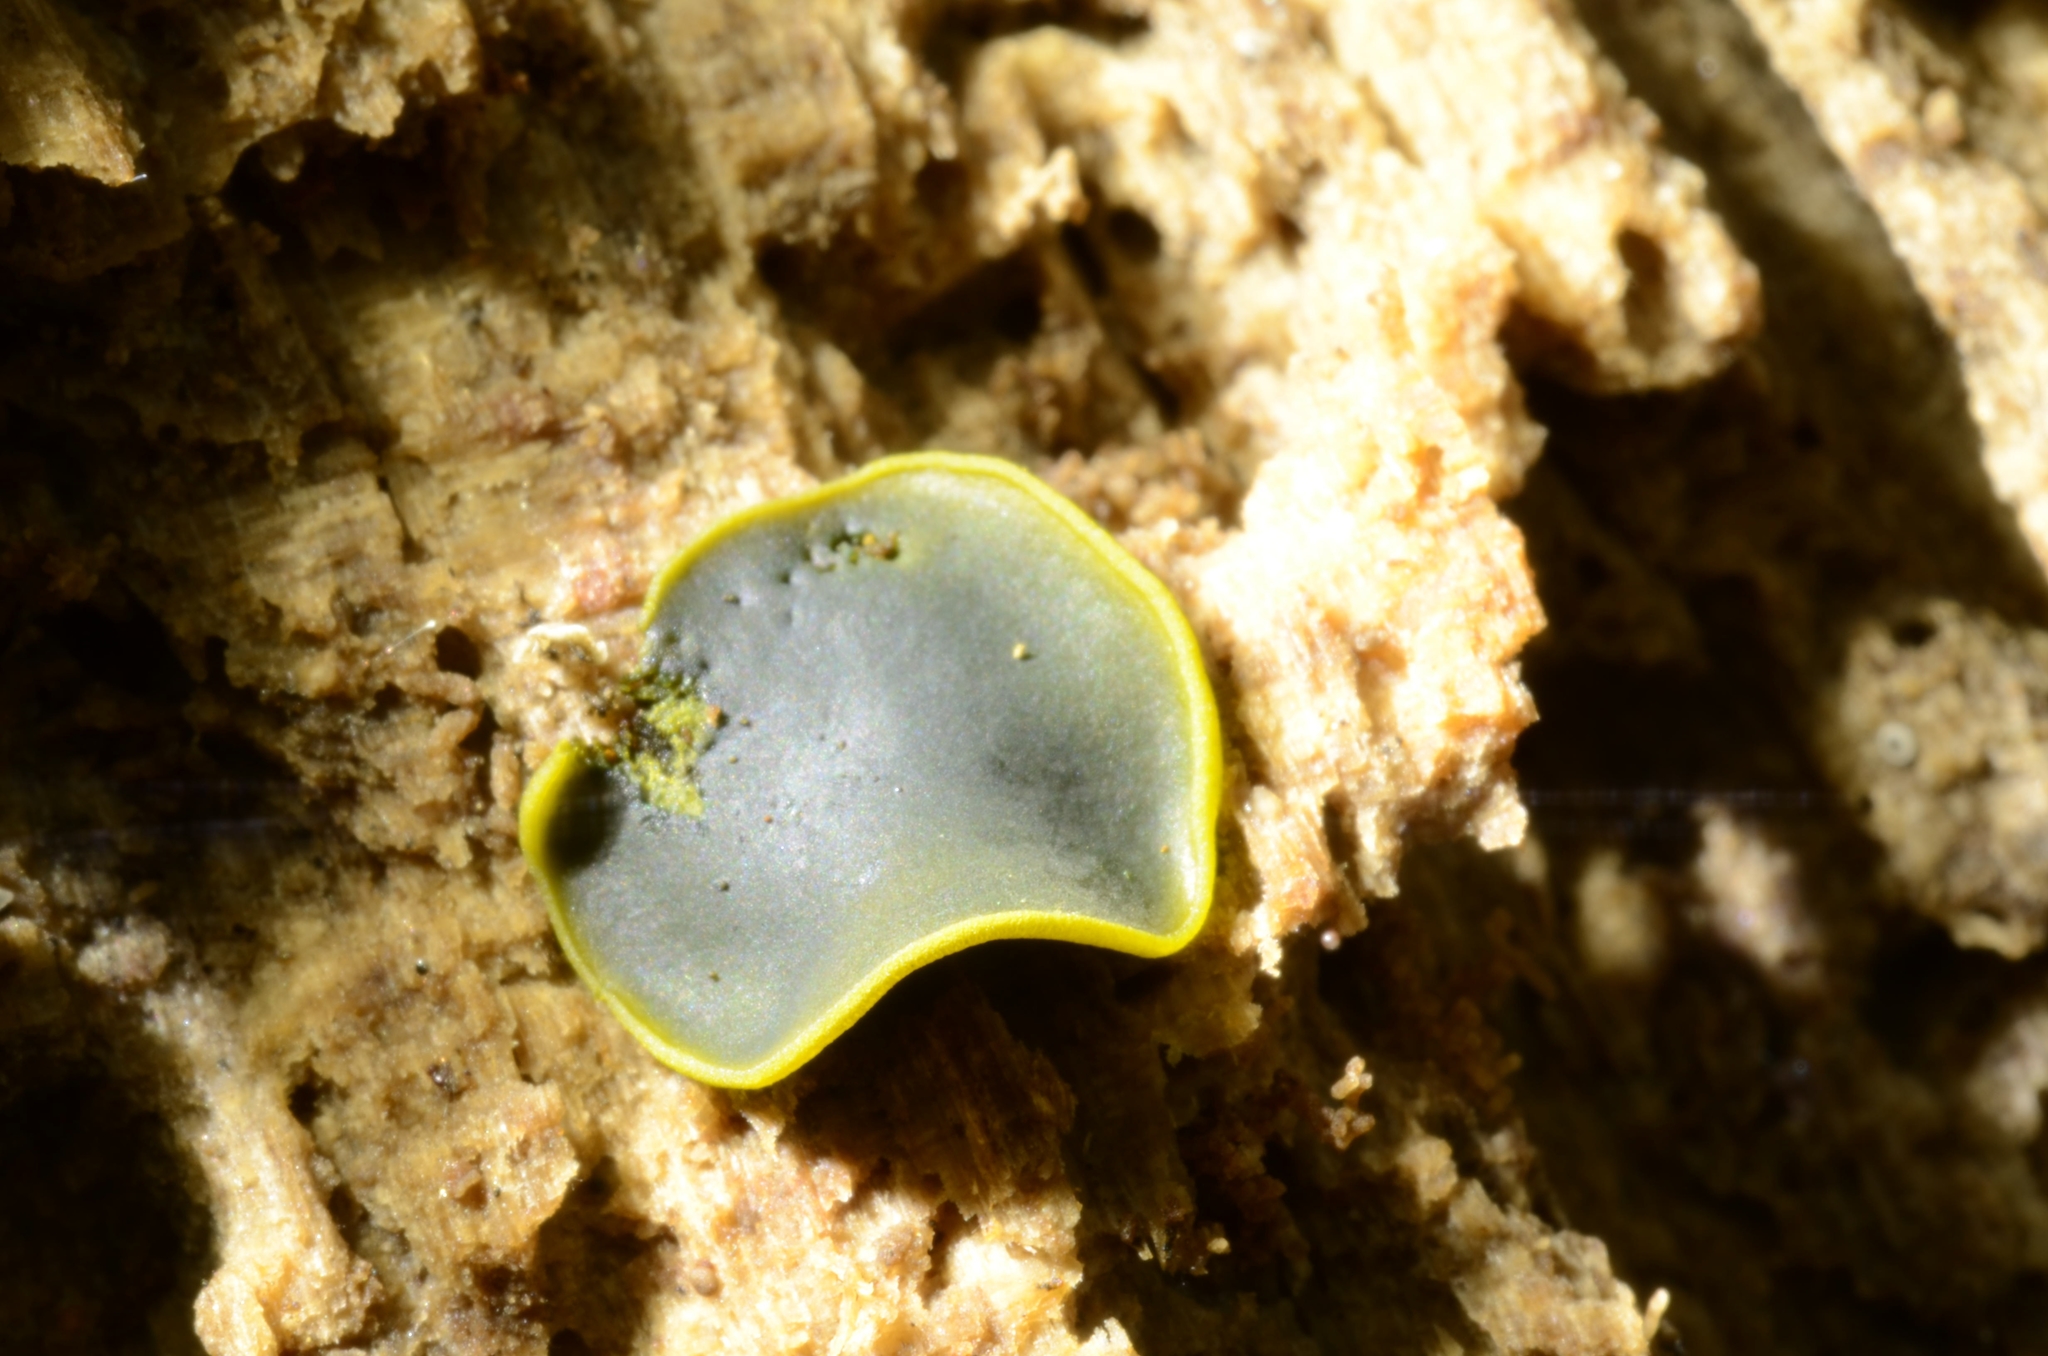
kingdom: Fungi
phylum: Ascomycota
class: Dothideomycetes
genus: Catinella
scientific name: Catinella olivacea
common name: Olive salver
